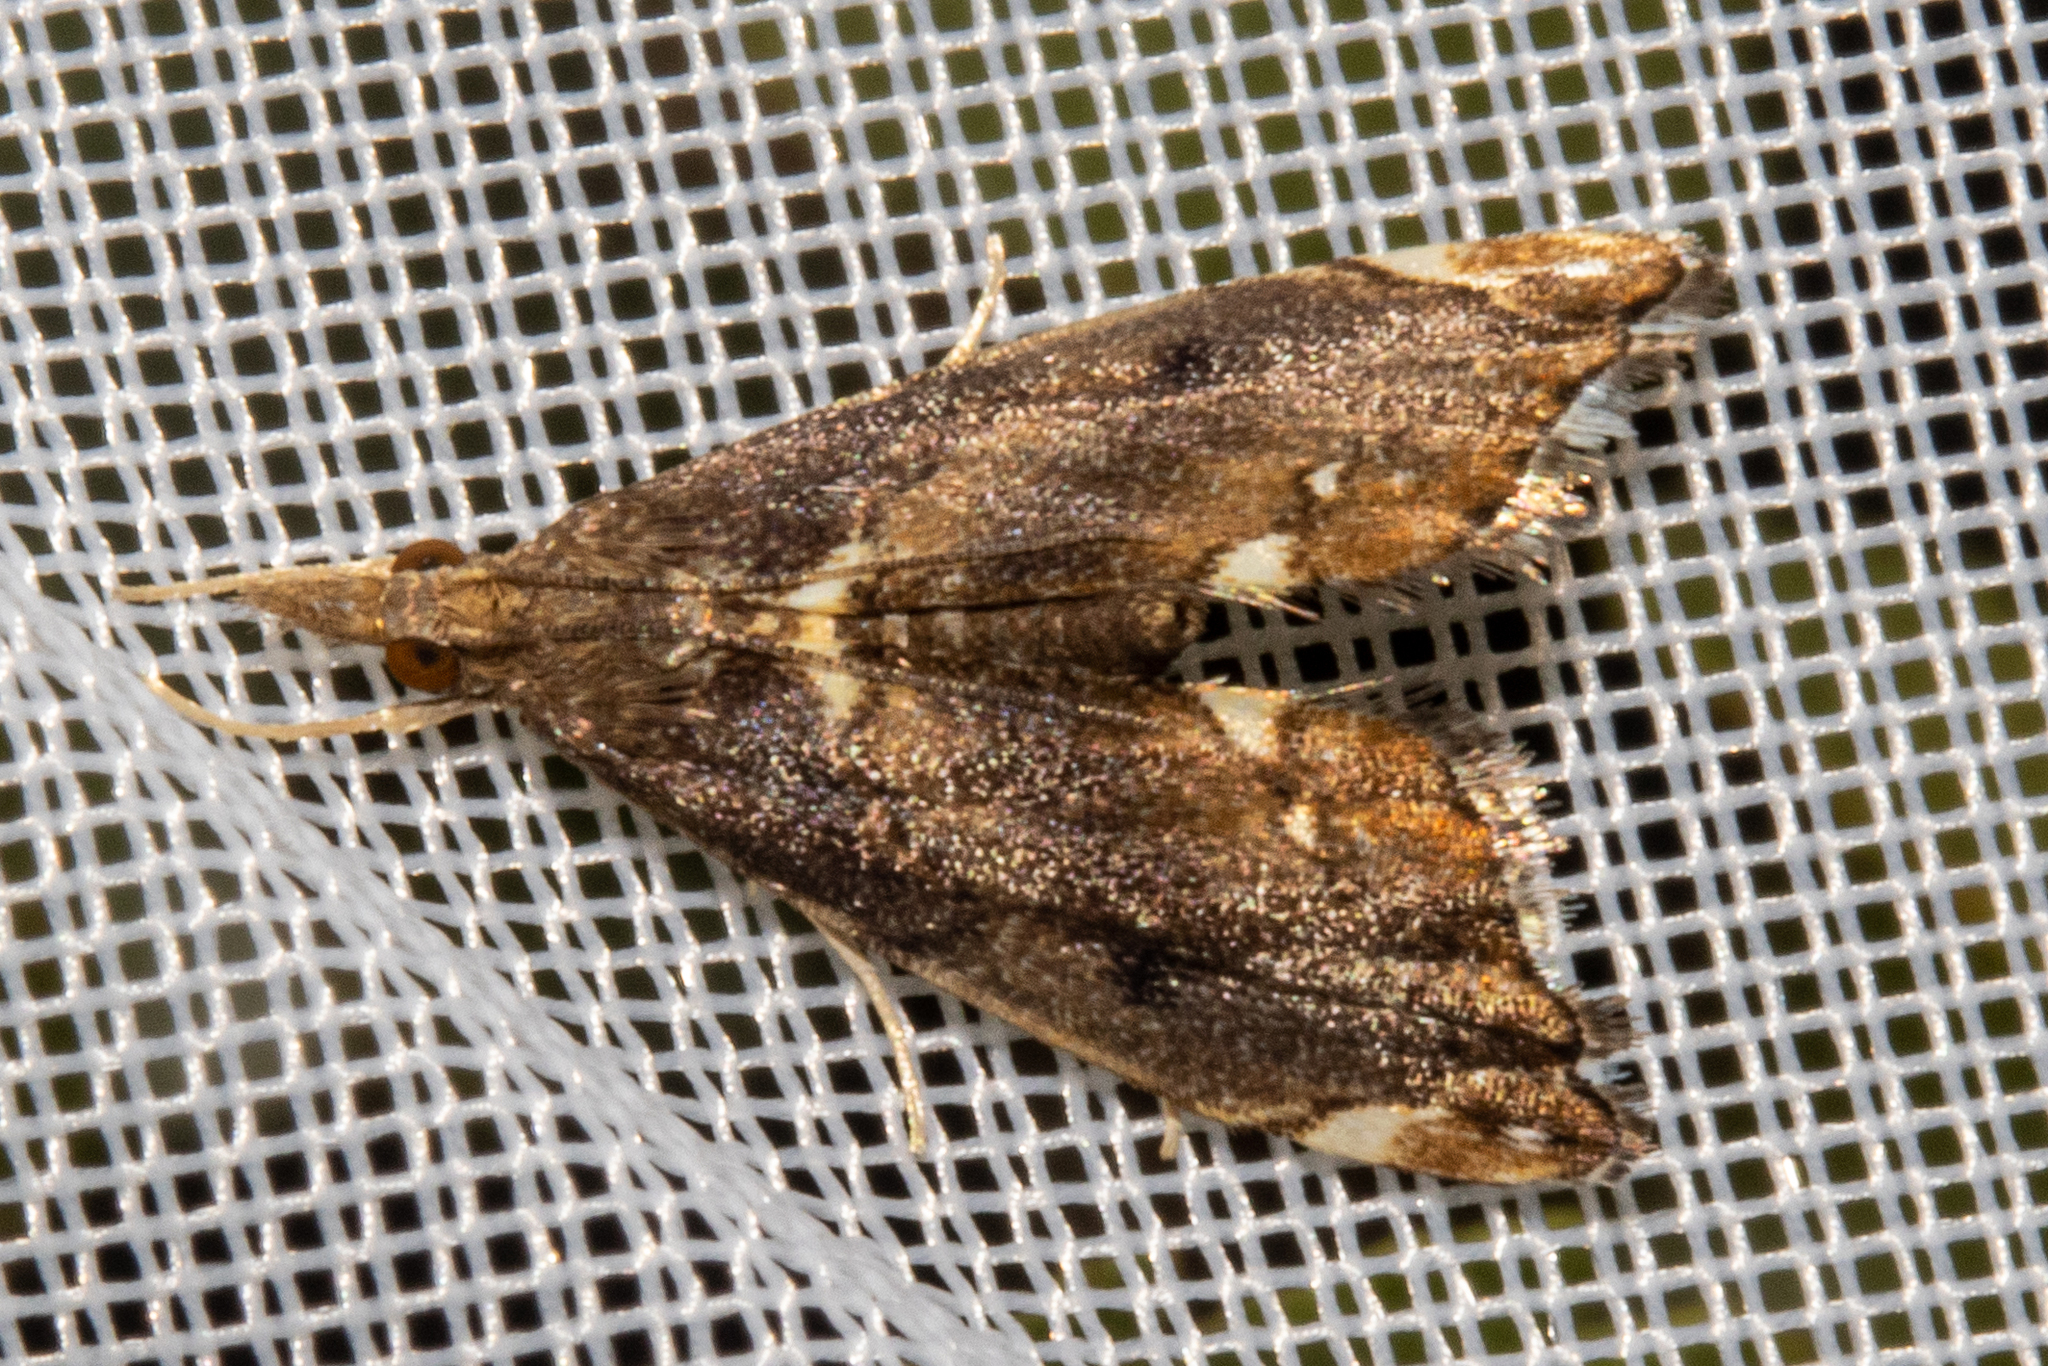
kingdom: Animalia
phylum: Arthropoda
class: Insecta
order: Lepidoptera
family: Crambidae
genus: Glaucocharis
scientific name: Glaucocharis pyrsophanes
